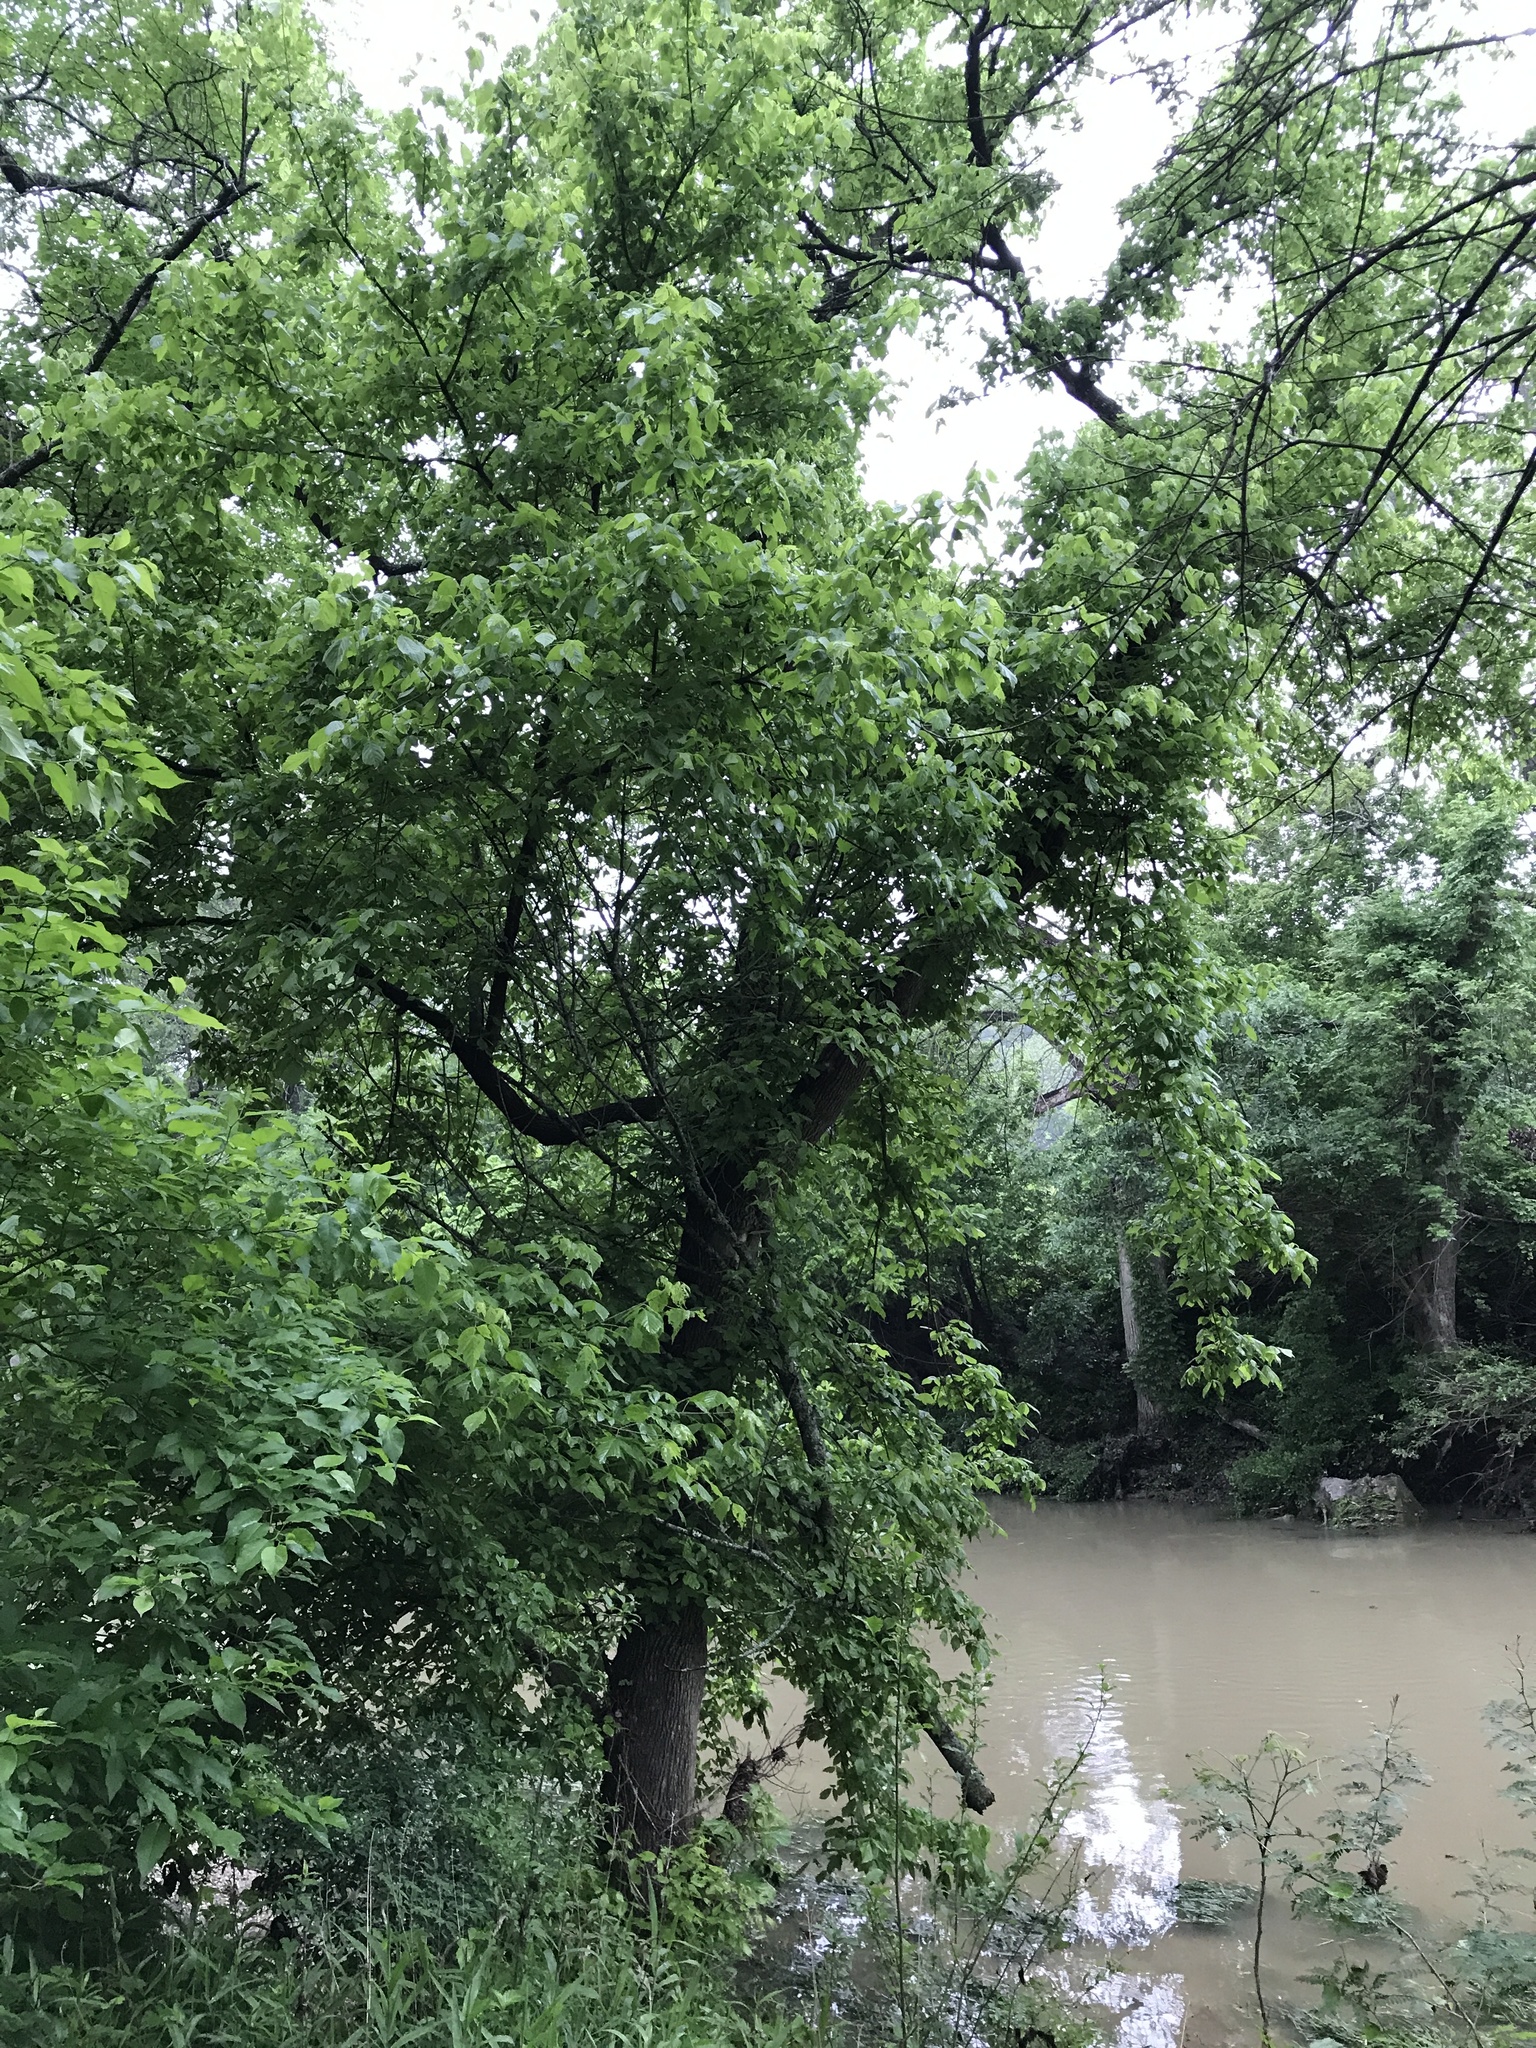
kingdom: Plantae
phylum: Tracheophyta
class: Magnoliopsida
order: Sapindales
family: Sapindaceae
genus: Acer
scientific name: Acer negundo
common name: Ashleaf maple
